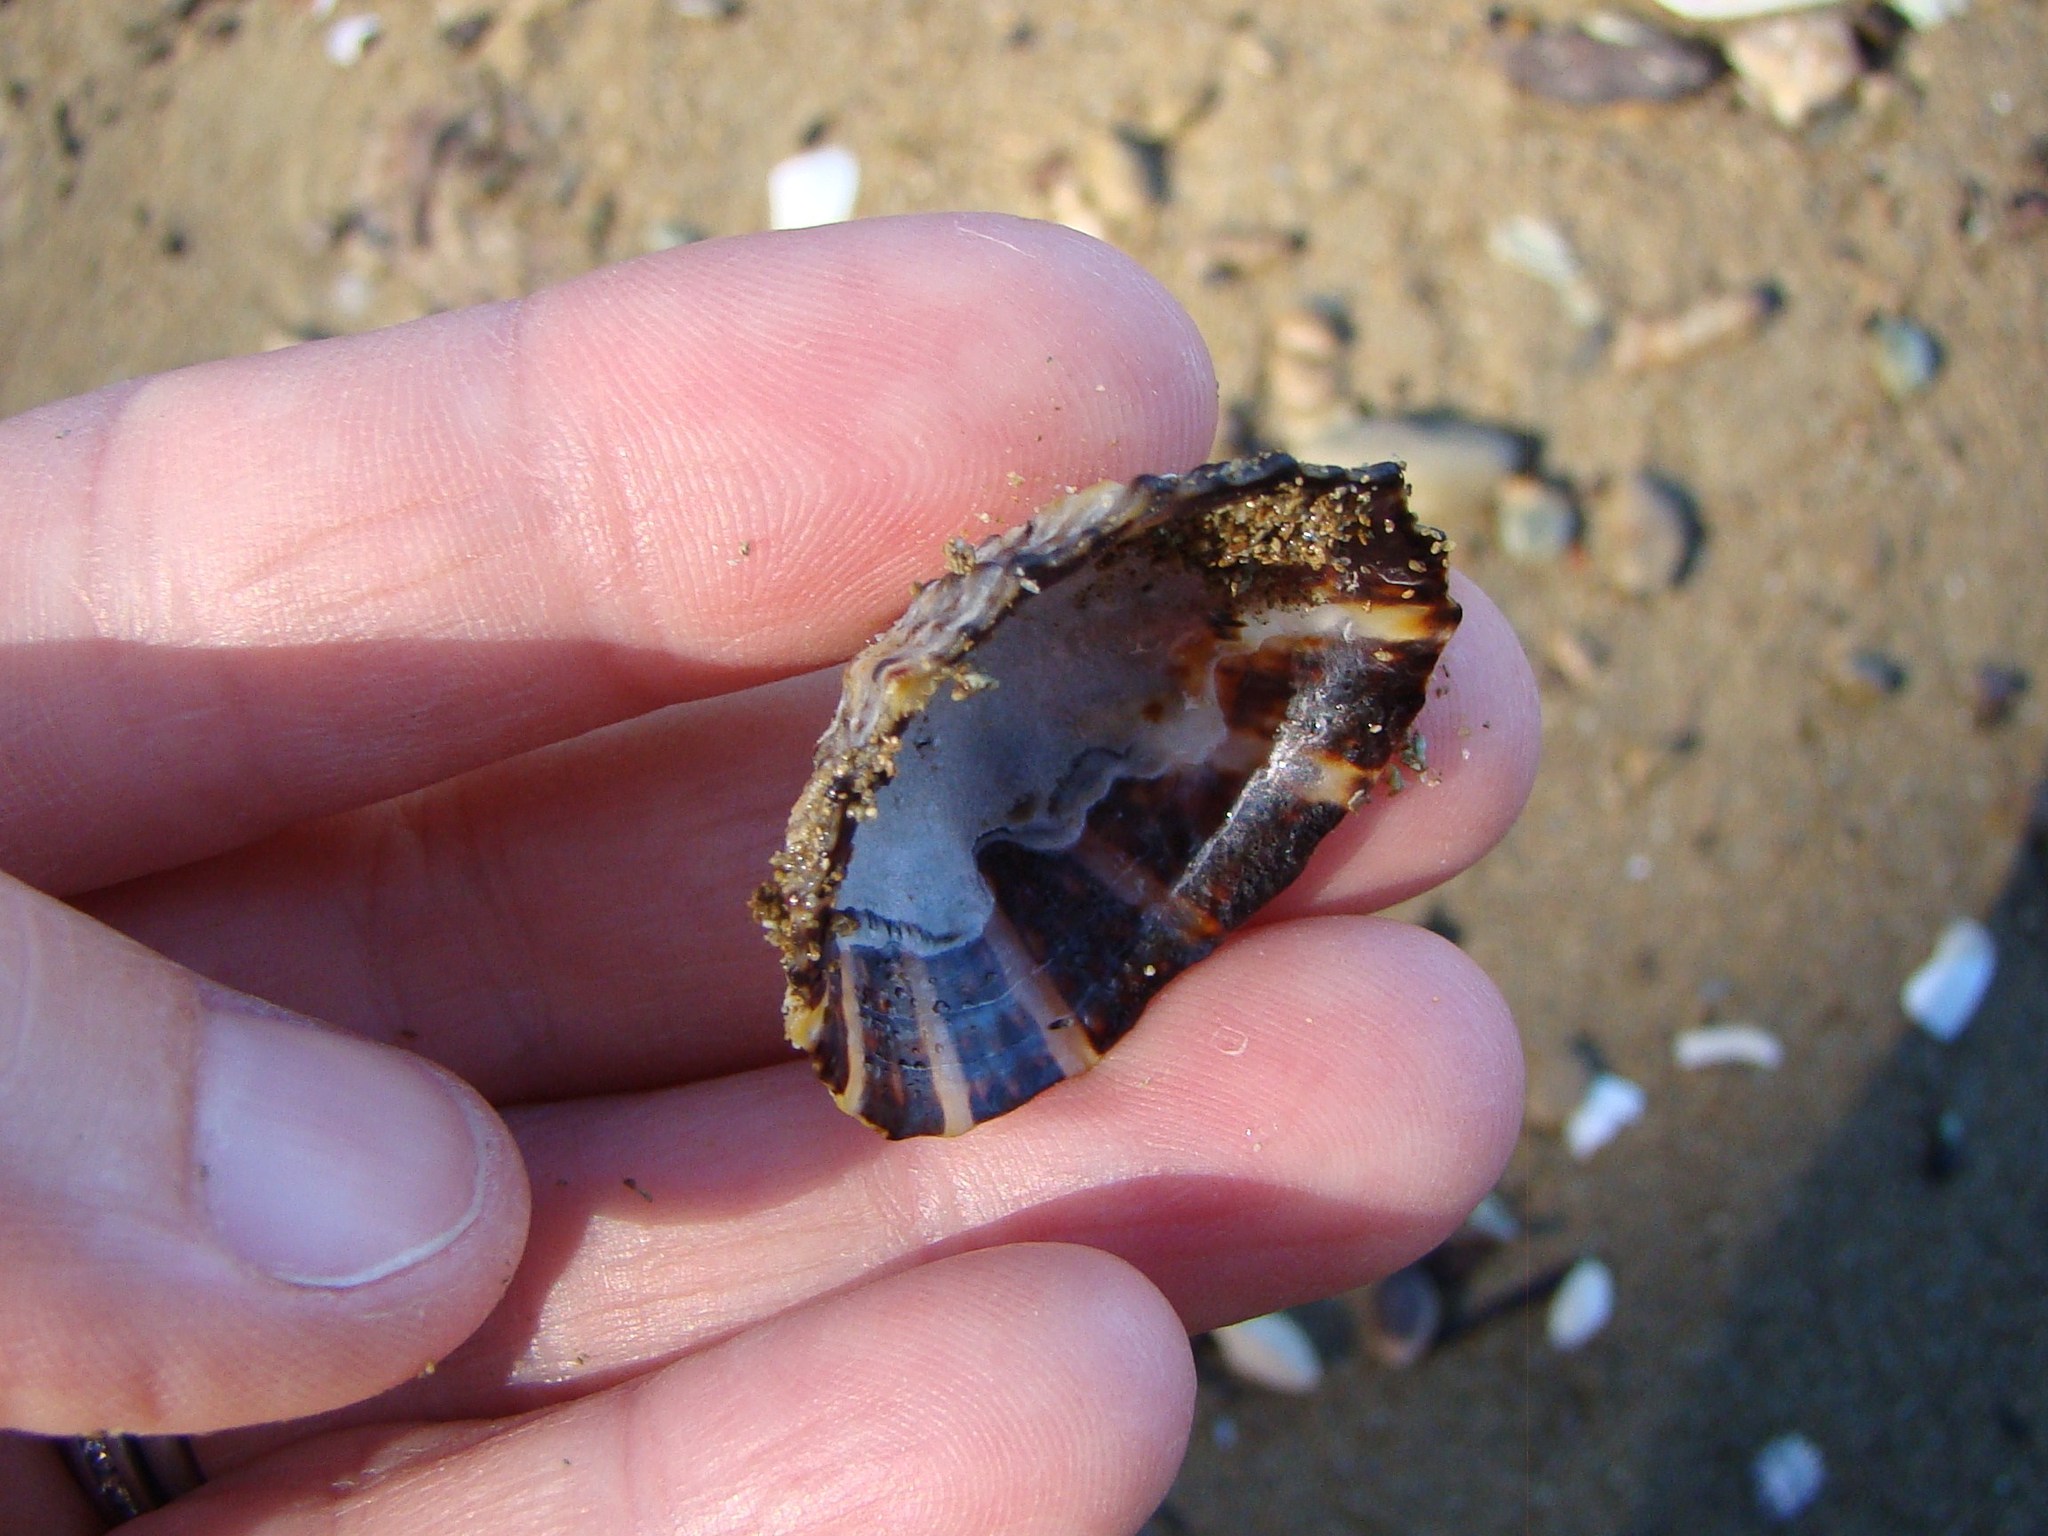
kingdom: Animalia
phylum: Mollusca
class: Gastropoda
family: Nacellidae
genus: Cellana
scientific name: Cellana ornata
